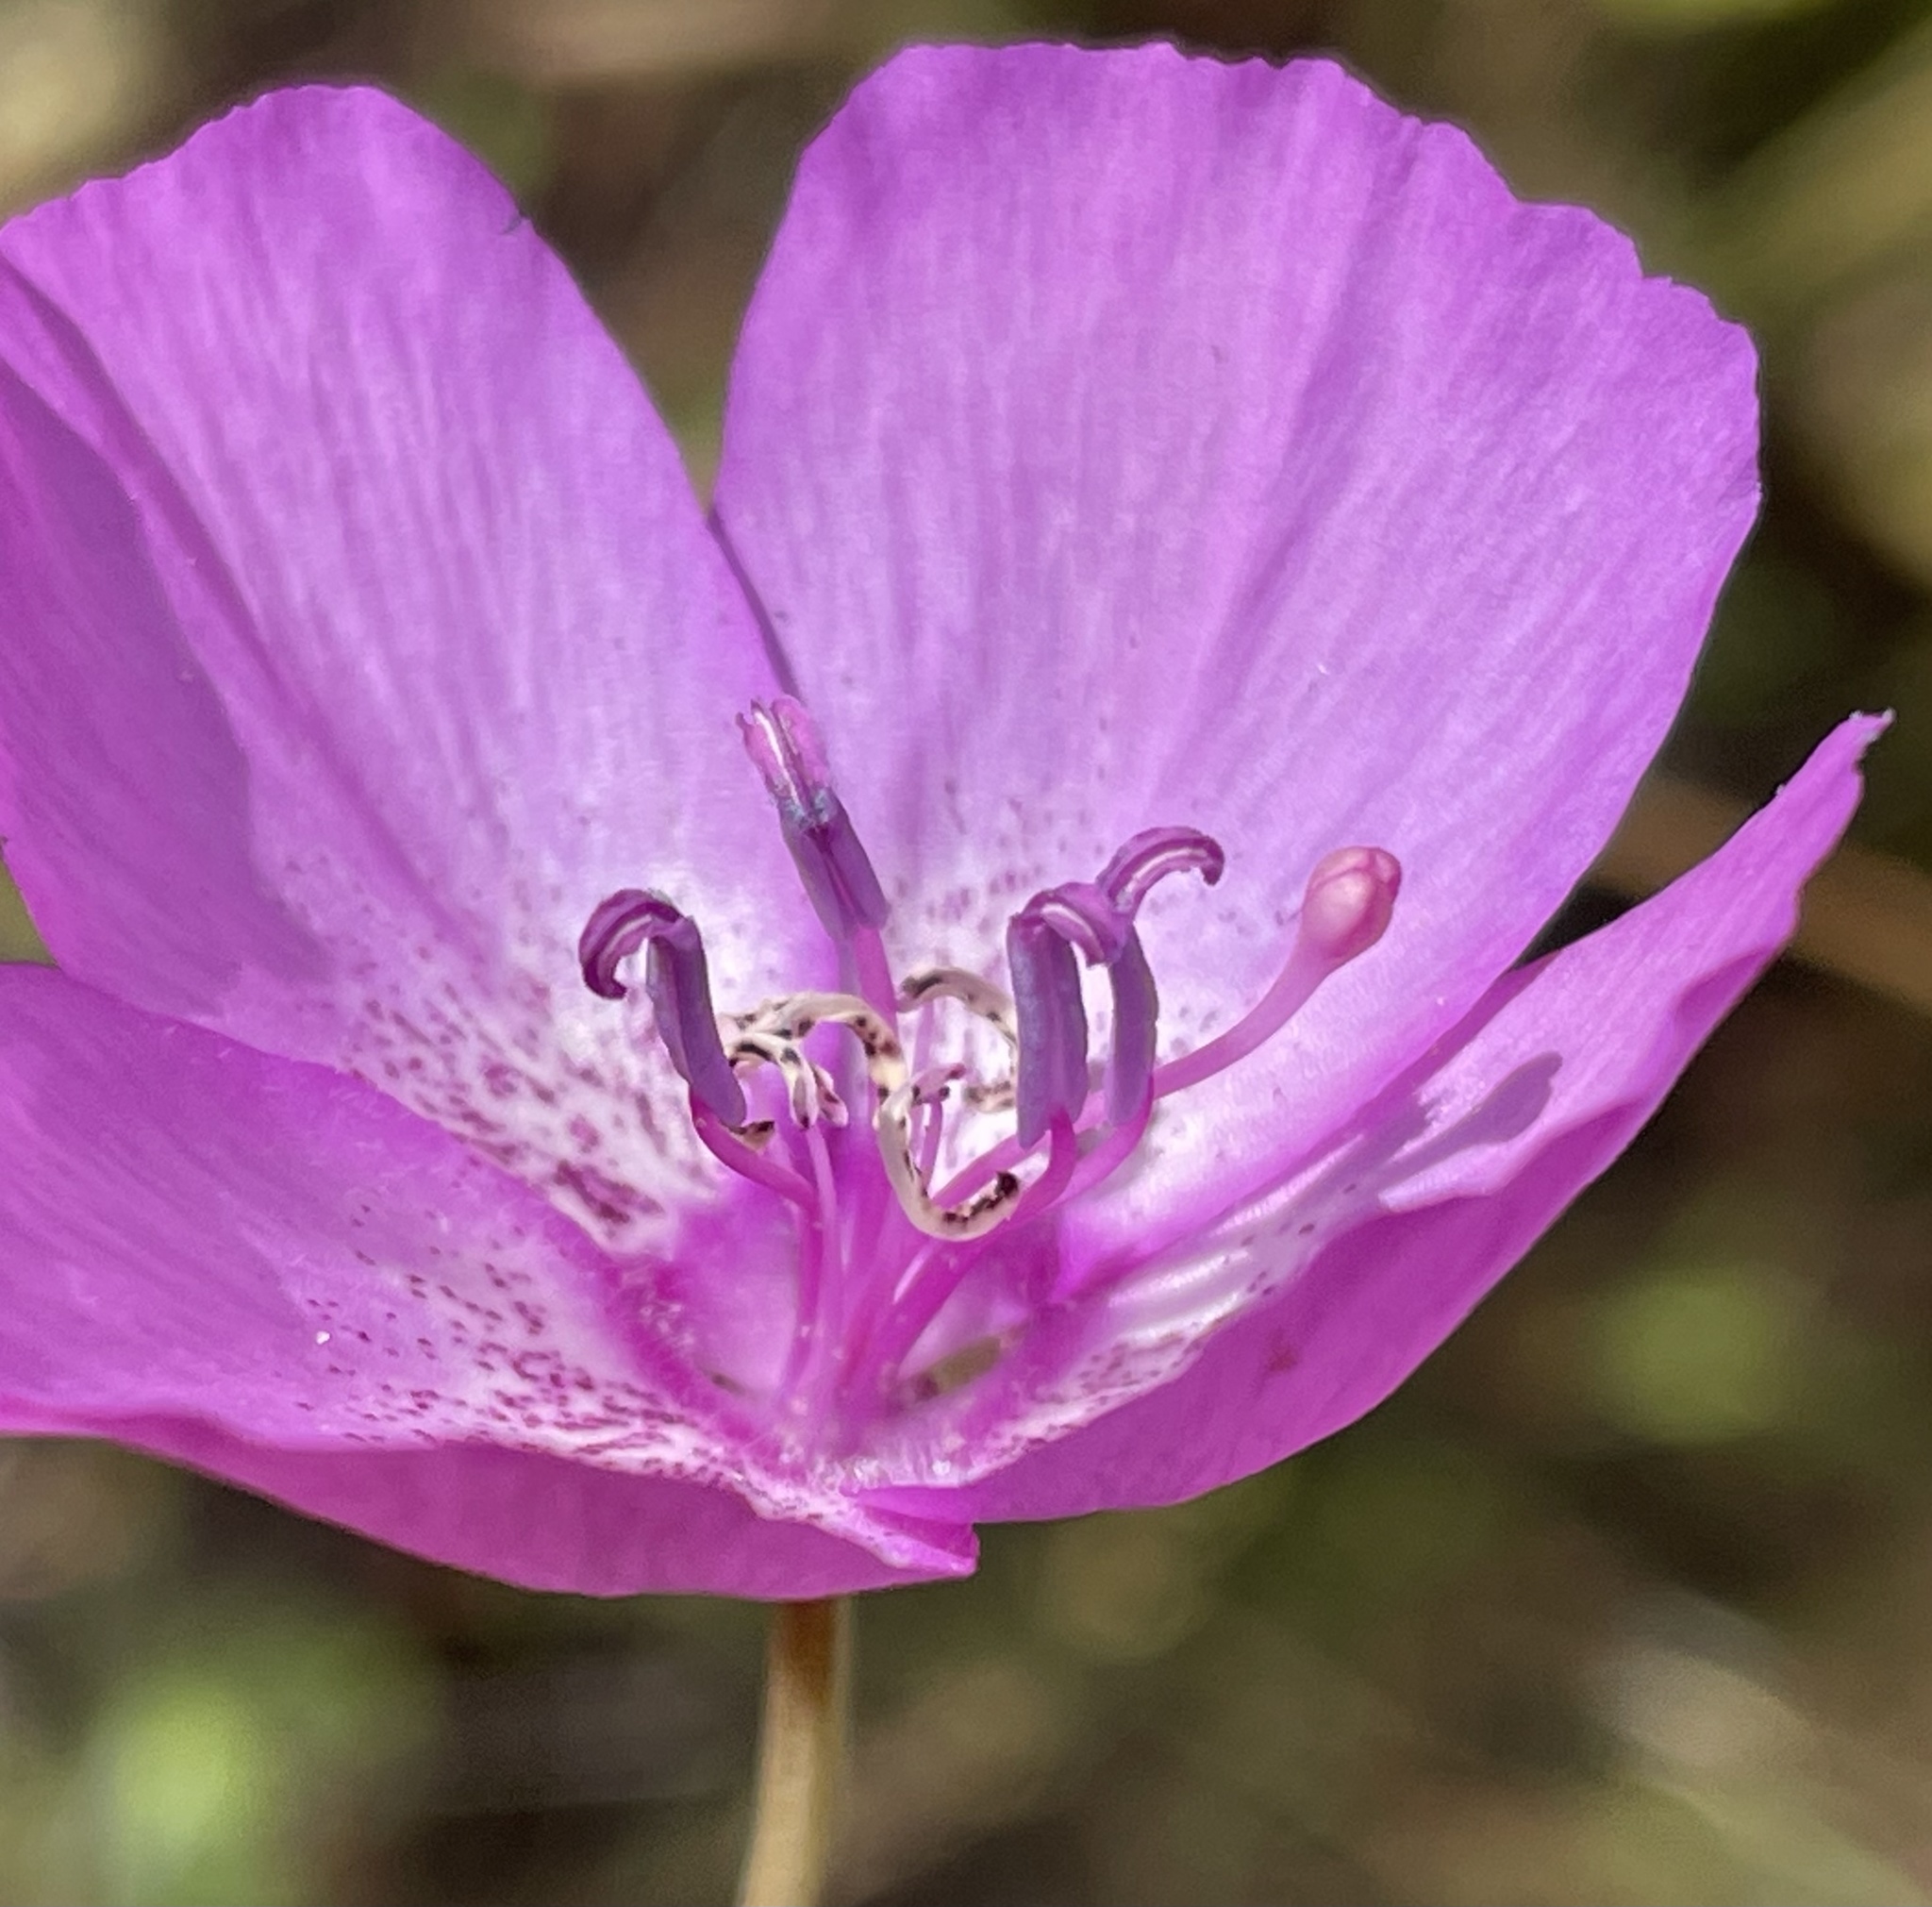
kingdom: Plantae
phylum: Tracheophyta
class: Magnoliopsida
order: Myrtales
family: Onagraceae
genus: Clarkia
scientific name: Clarkia lewisii
